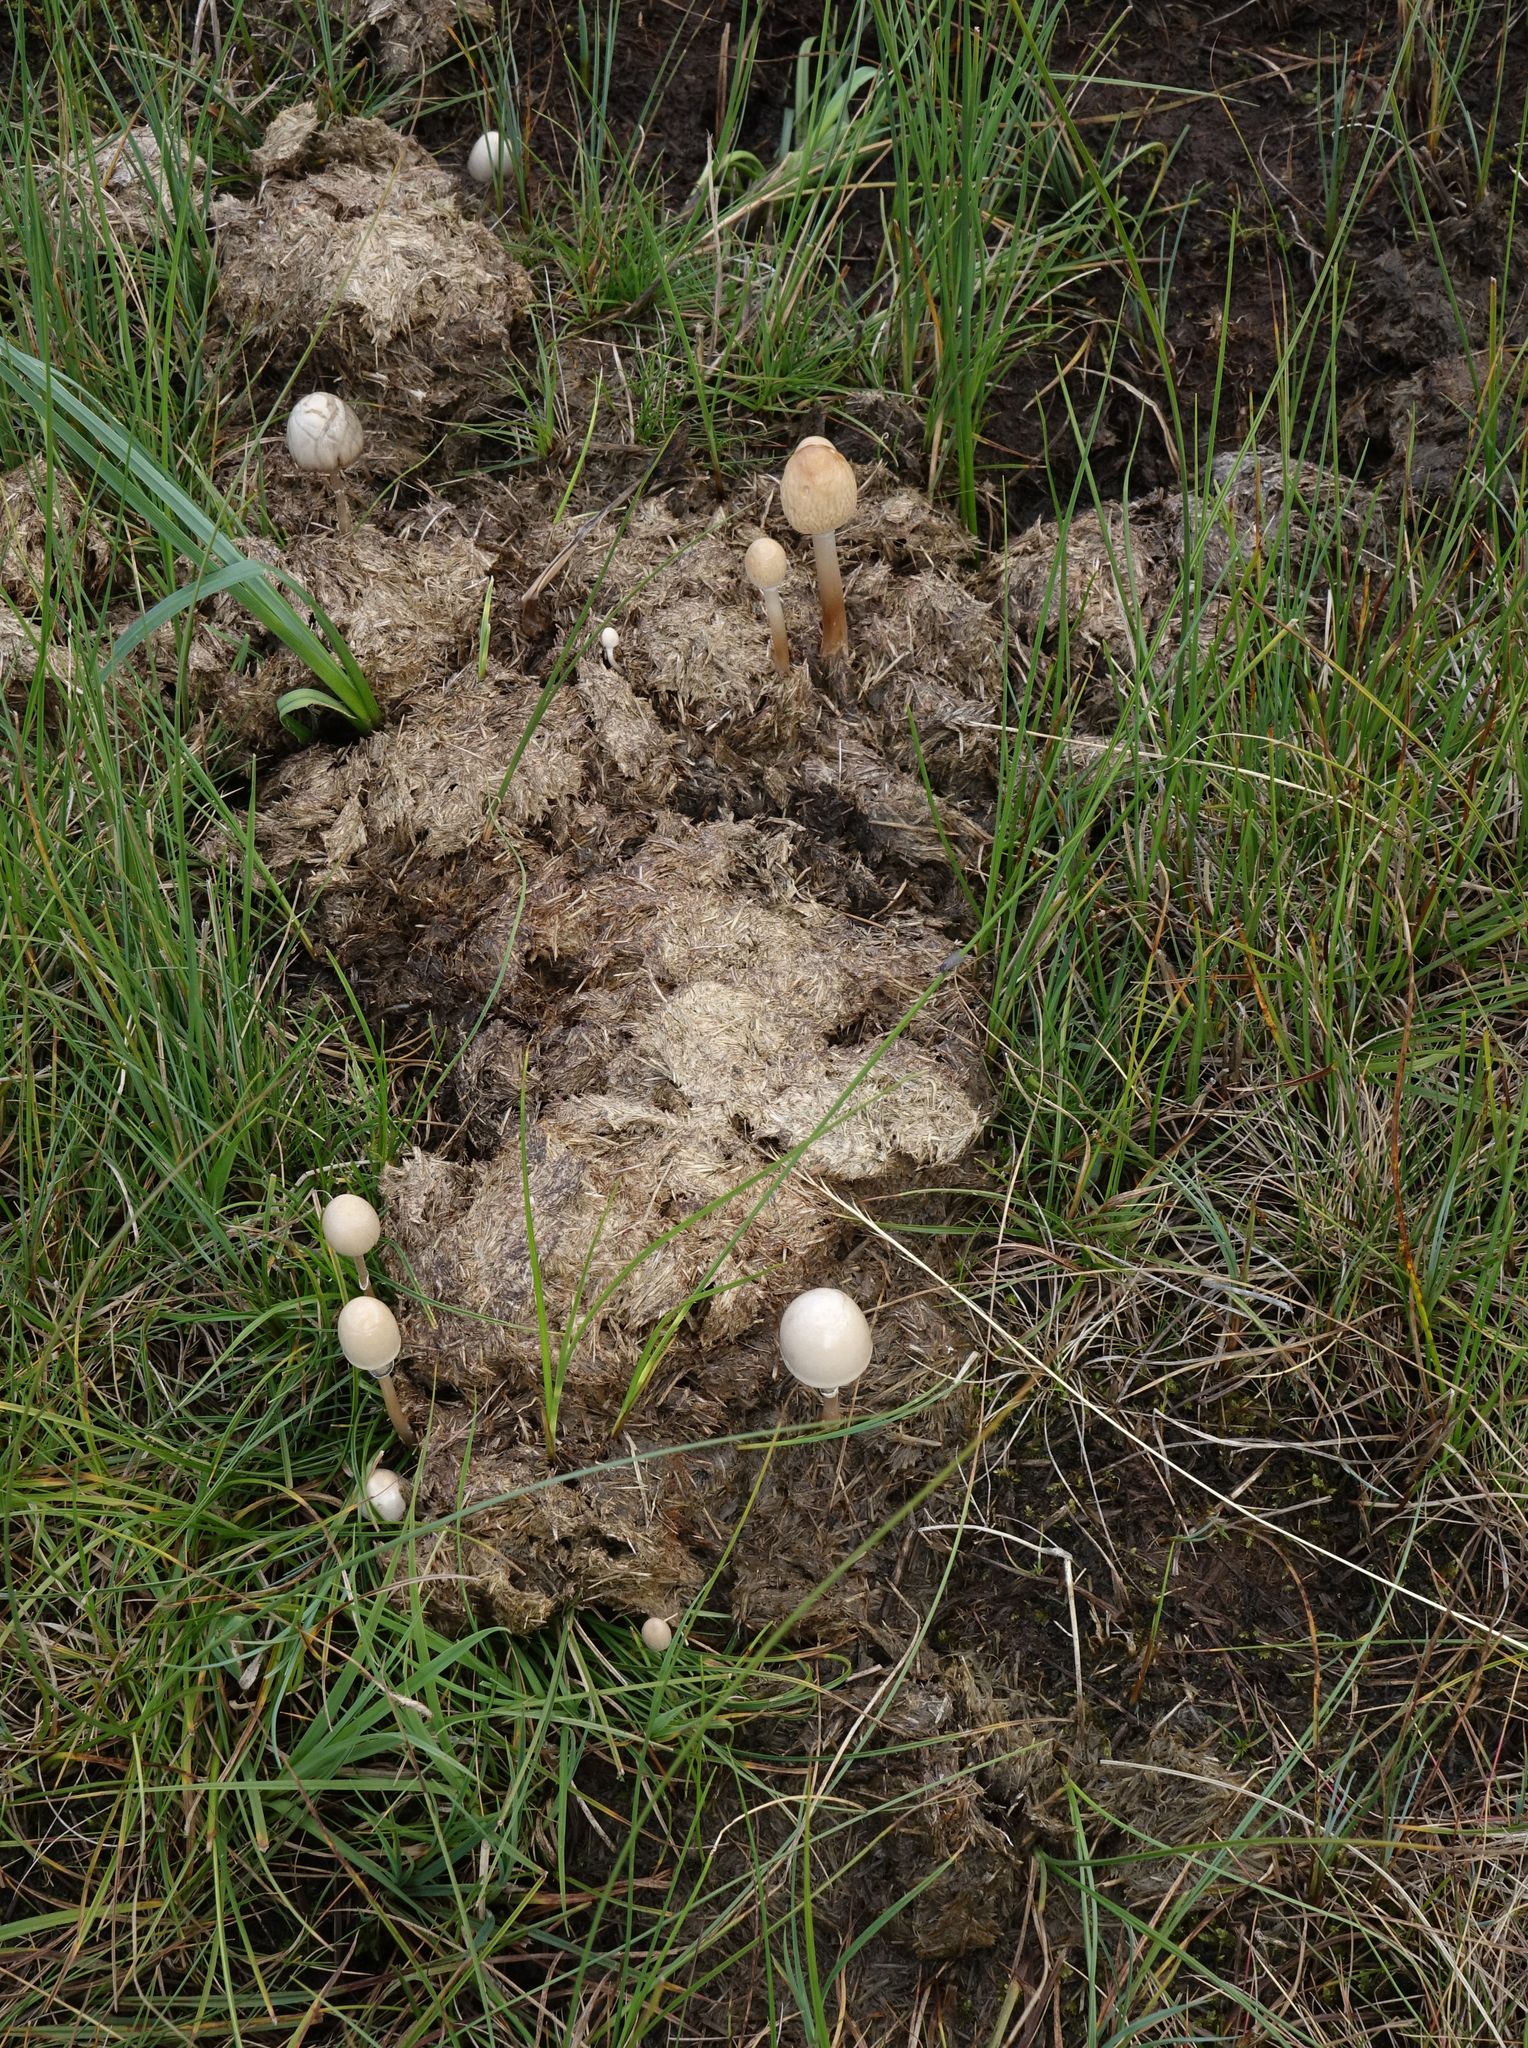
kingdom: Fungi
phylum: Basidiomycota
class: Agaricomycetes
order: Agaricales
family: Bolbitiaceae
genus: Panaeolus
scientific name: Panaeolus semiovatus
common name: Shiny mottlegill
